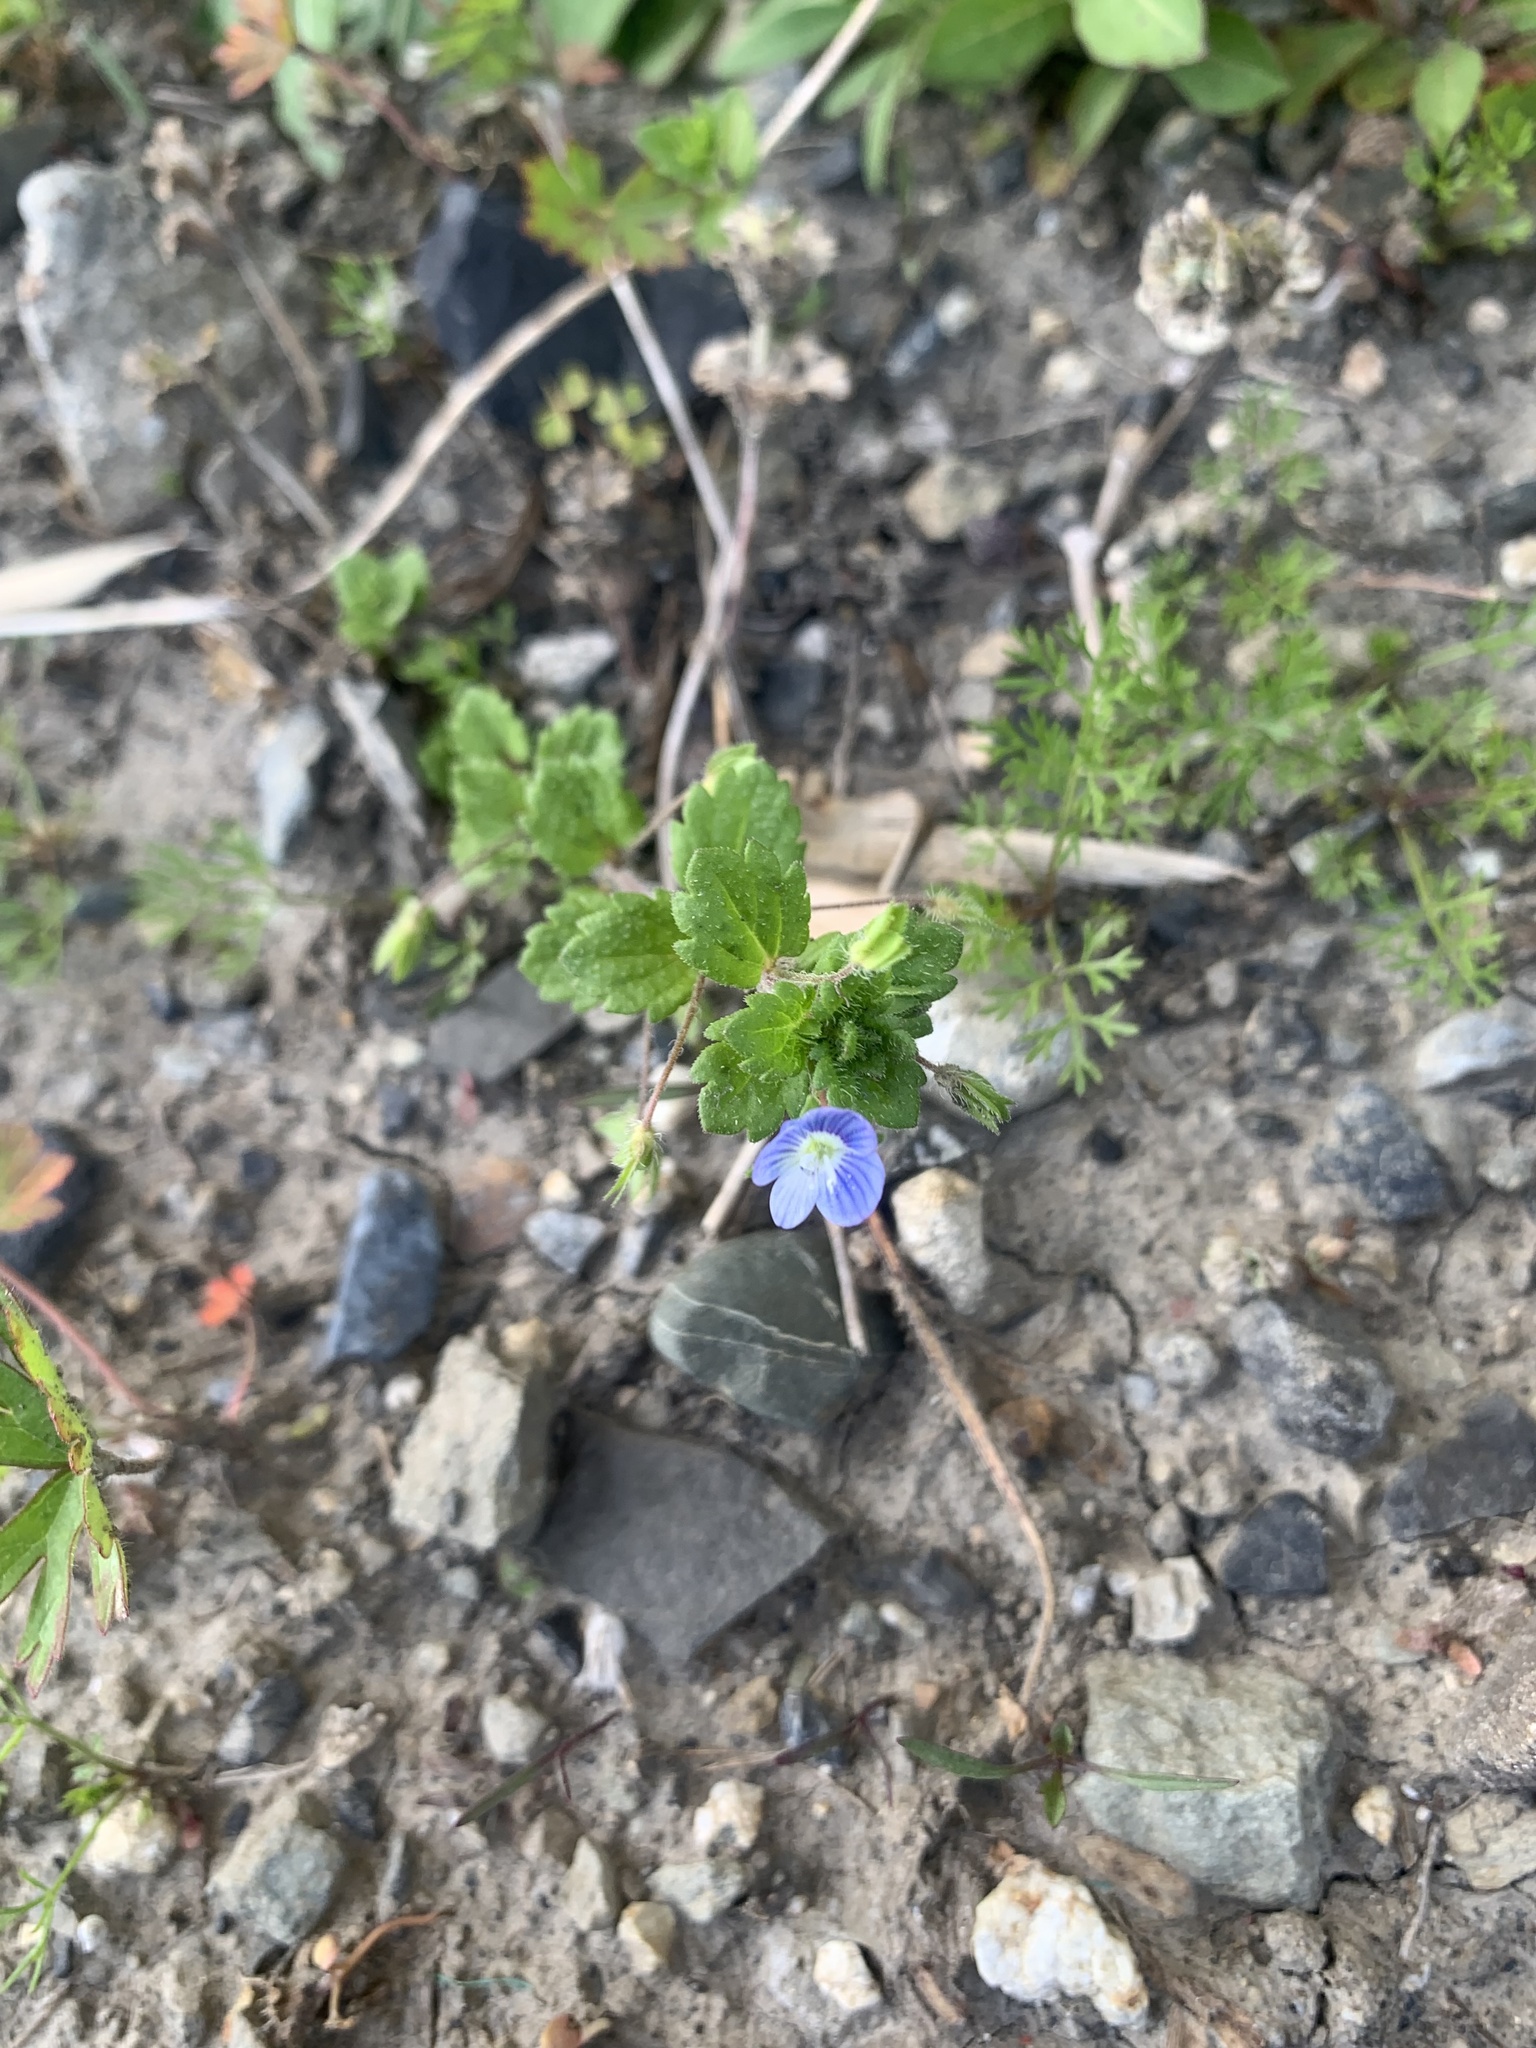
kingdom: Plantae
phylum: Tracheophyta
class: Magnoliopsida
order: Lamiales
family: Plantaginaceae
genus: Veronica
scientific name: Veronica persica
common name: Common field-speedwell
